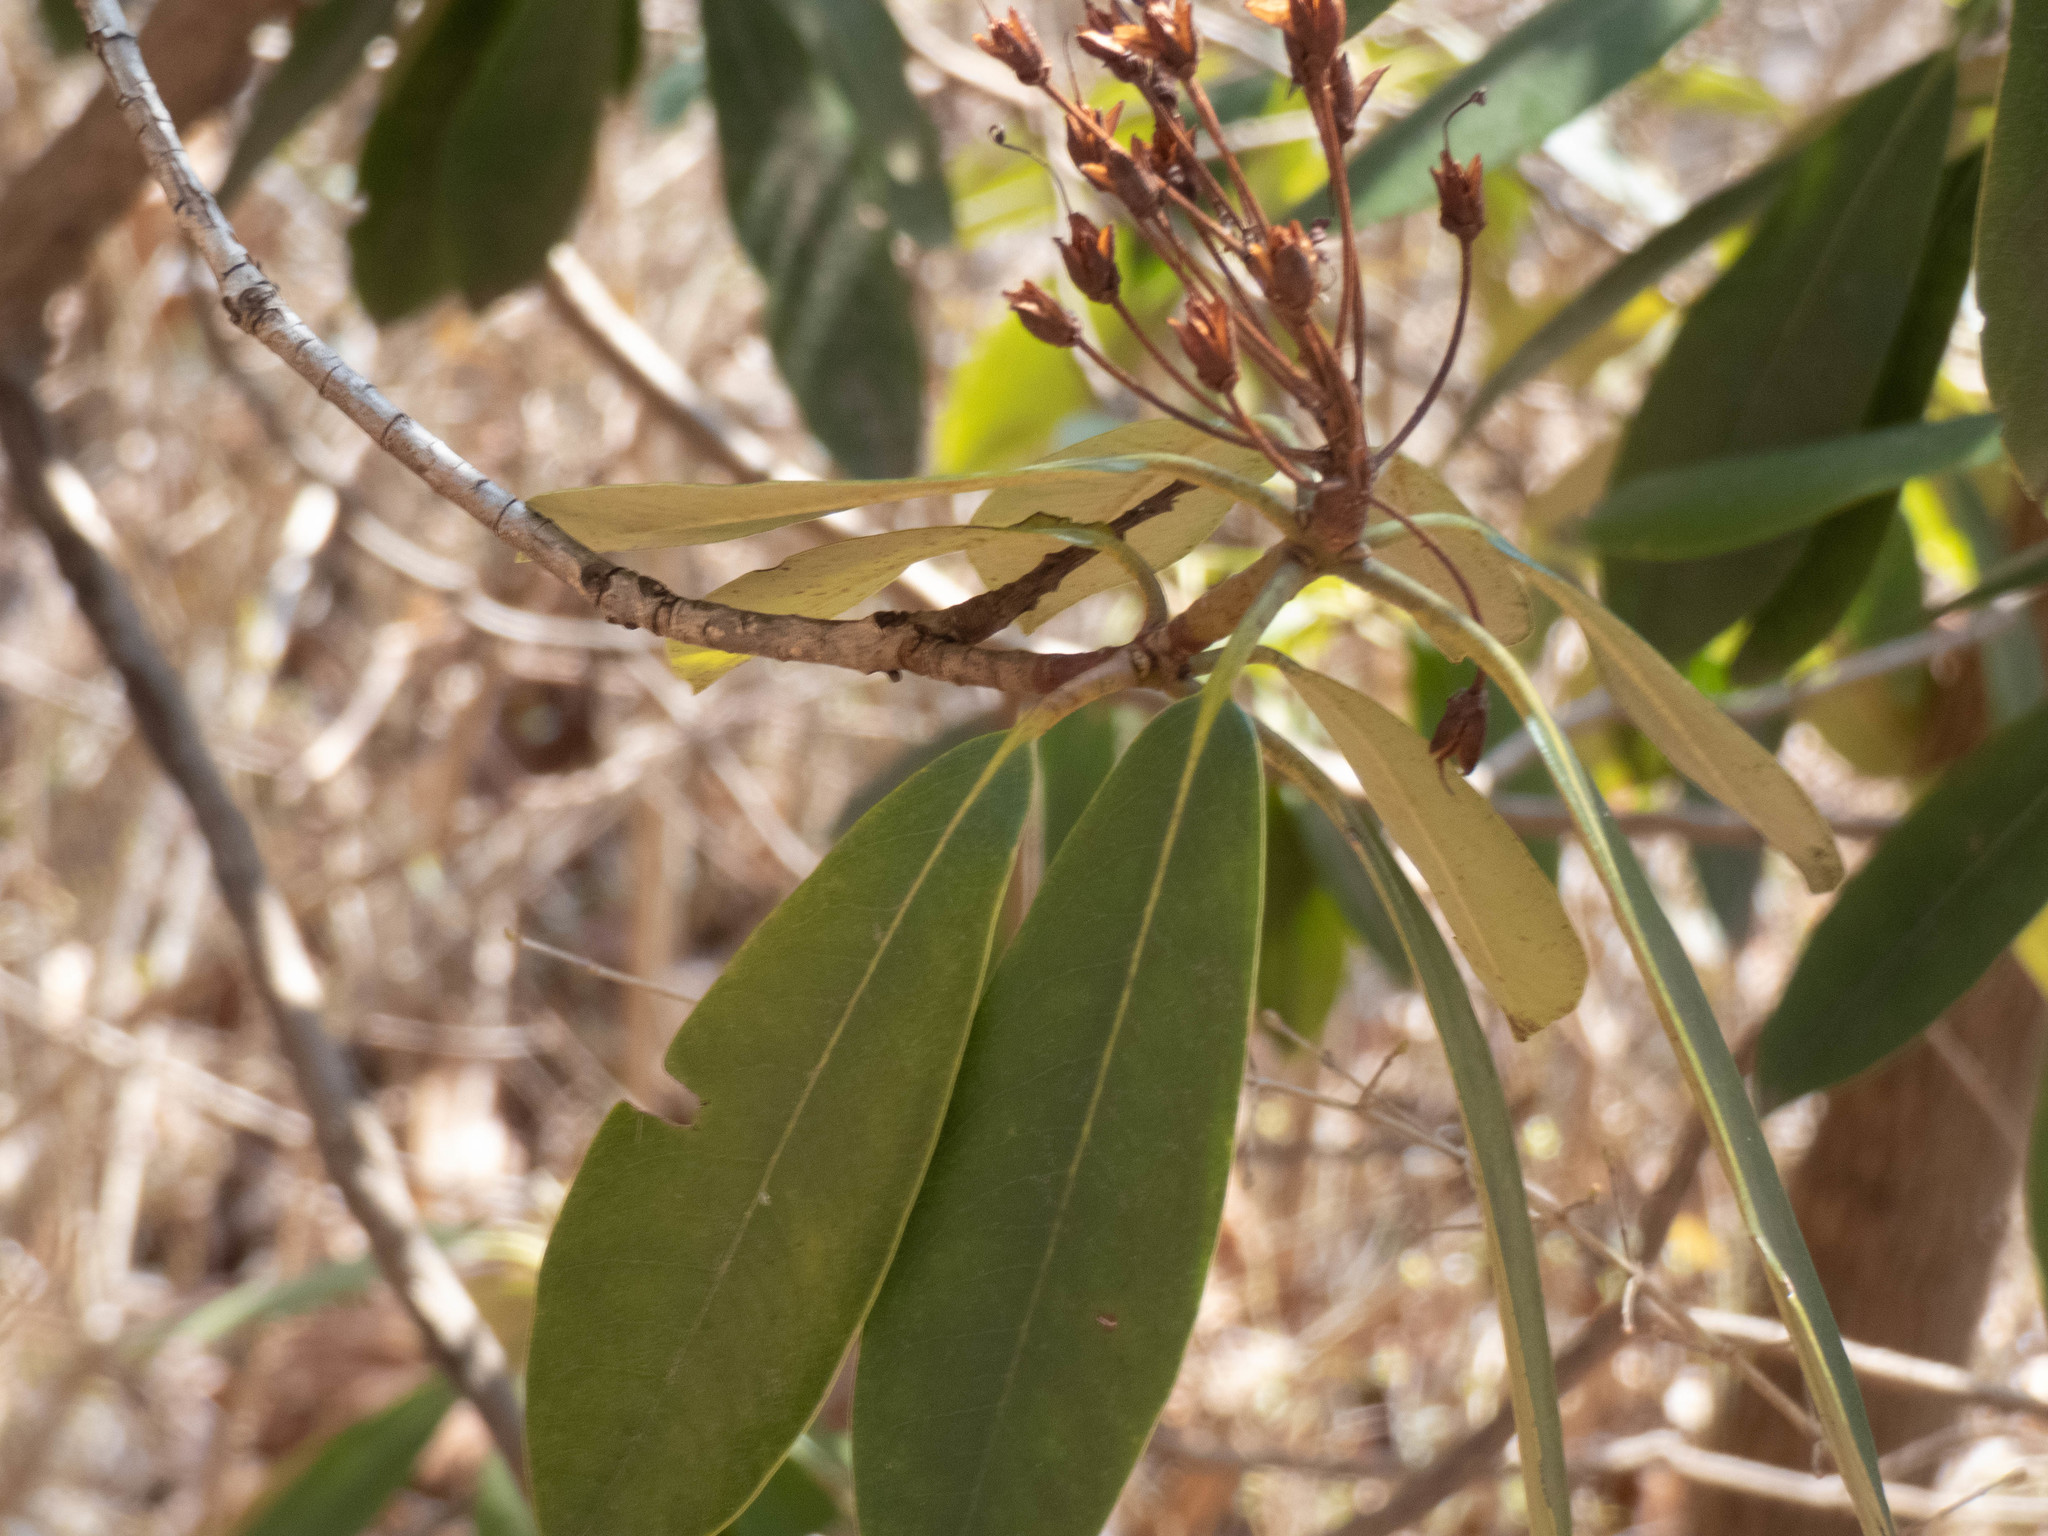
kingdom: Plantae
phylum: Tracheophyta
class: Magnoliopsida
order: Ericales
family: Ericaceae
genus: Rhododendron
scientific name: Rhododendron maximum
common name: Great rhododendron
